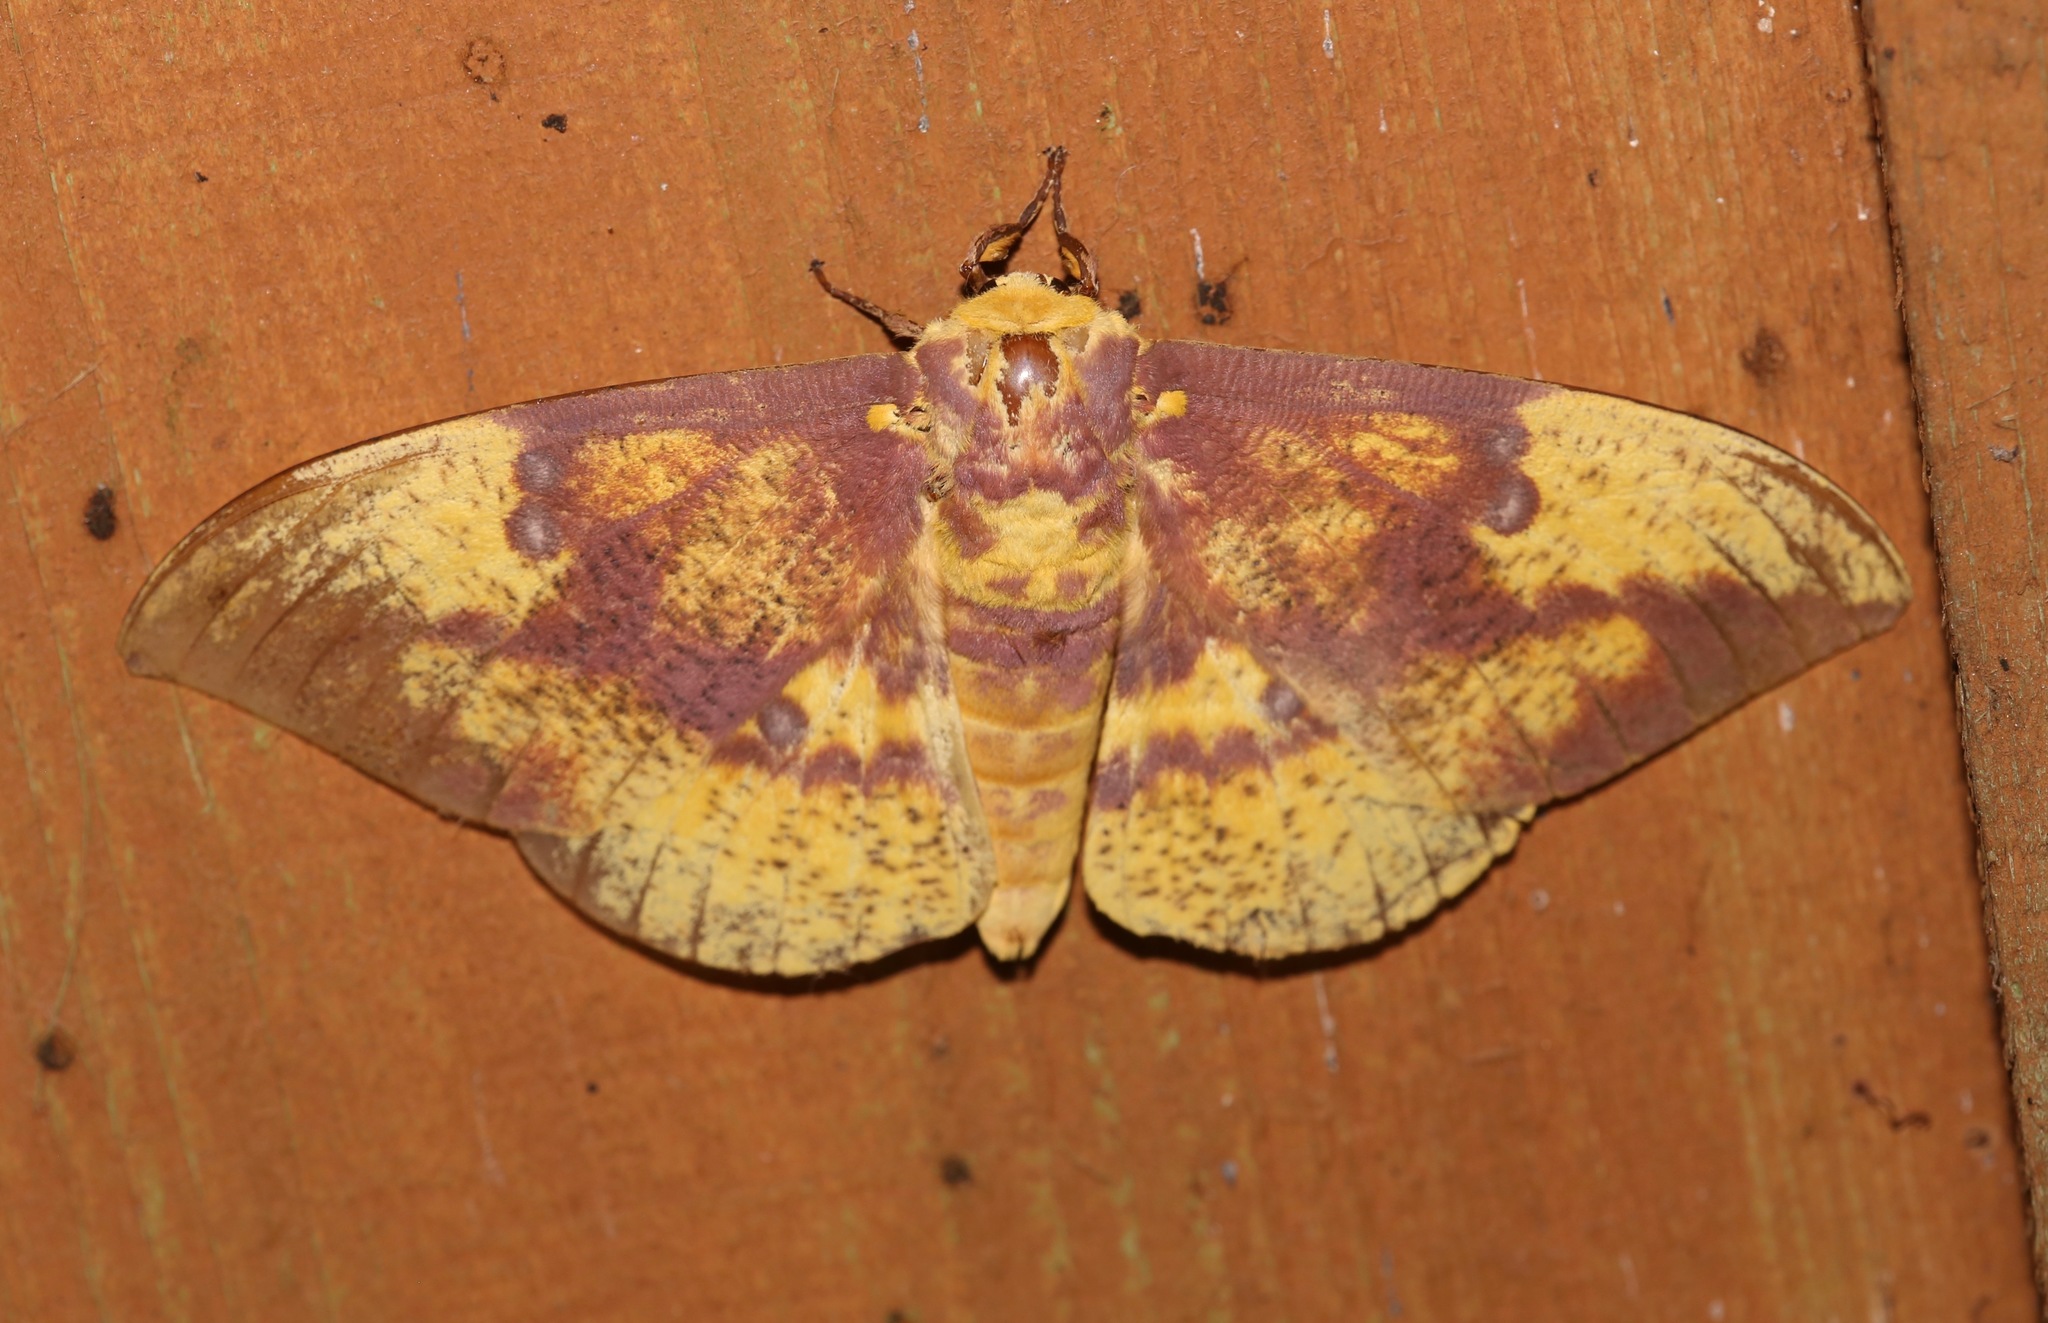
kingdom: Animalia
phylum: Arthropoda
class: Insecta
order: Lepidoptera
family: Saturniidae
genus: Eacles
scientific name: Eacles imperialis
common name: Imperial moth
